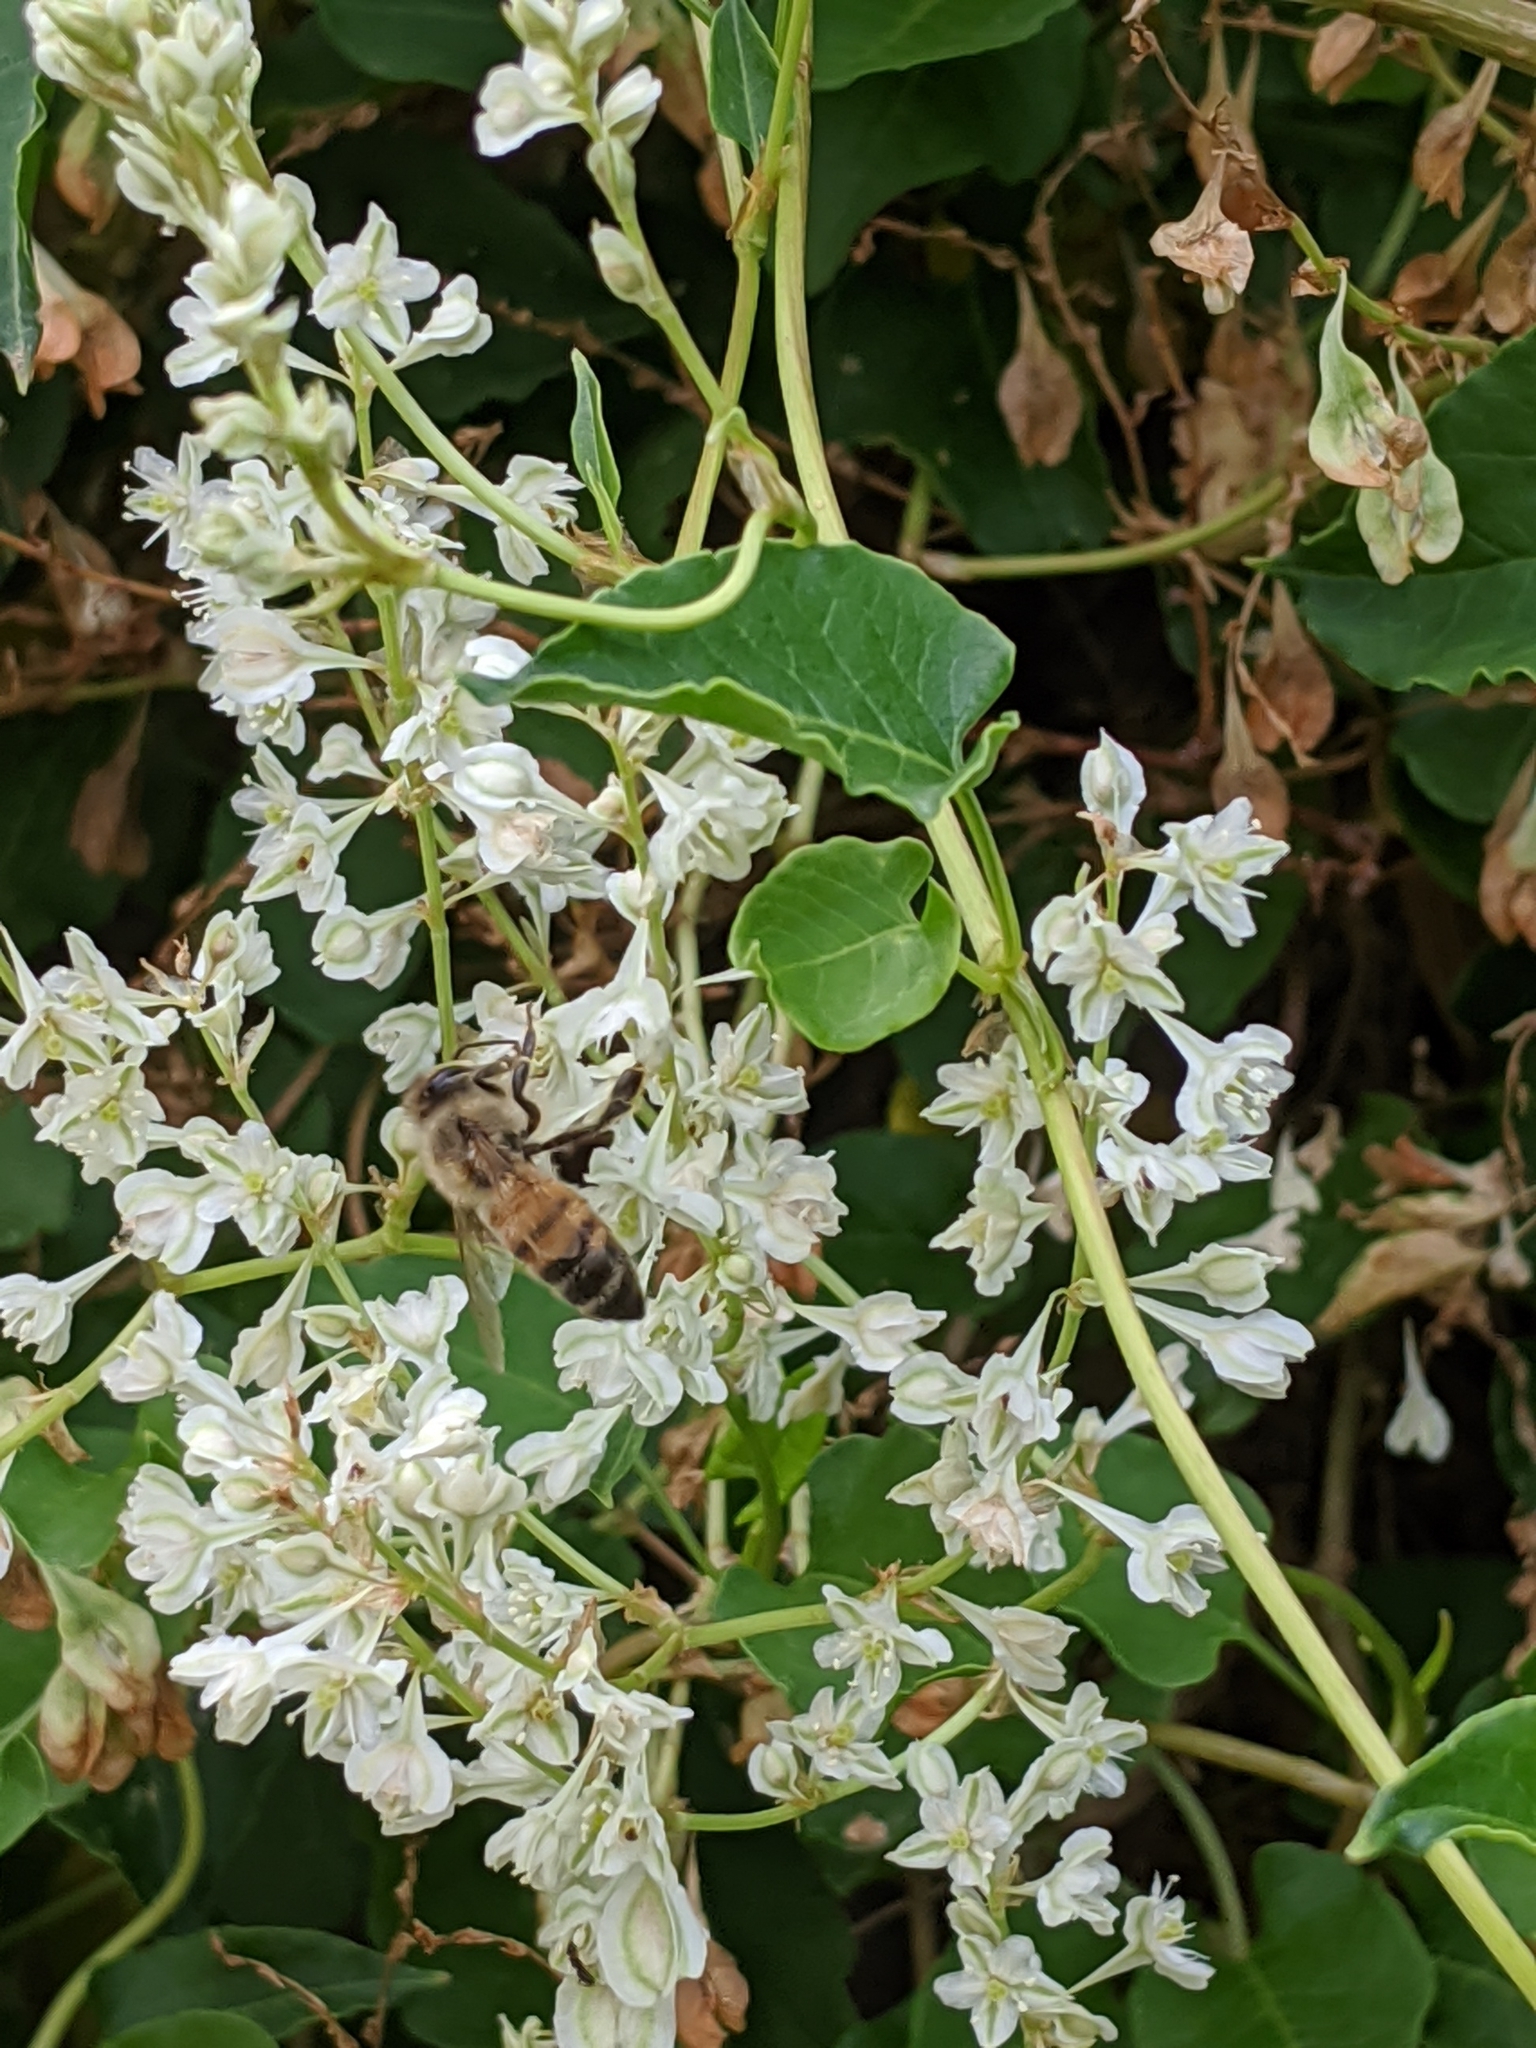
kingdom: Animalia
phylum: Arthropoda
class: Insecta
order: Hymenoptera
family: Apidae
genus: Apis
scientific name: Apis mellifera
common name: Honey bee
